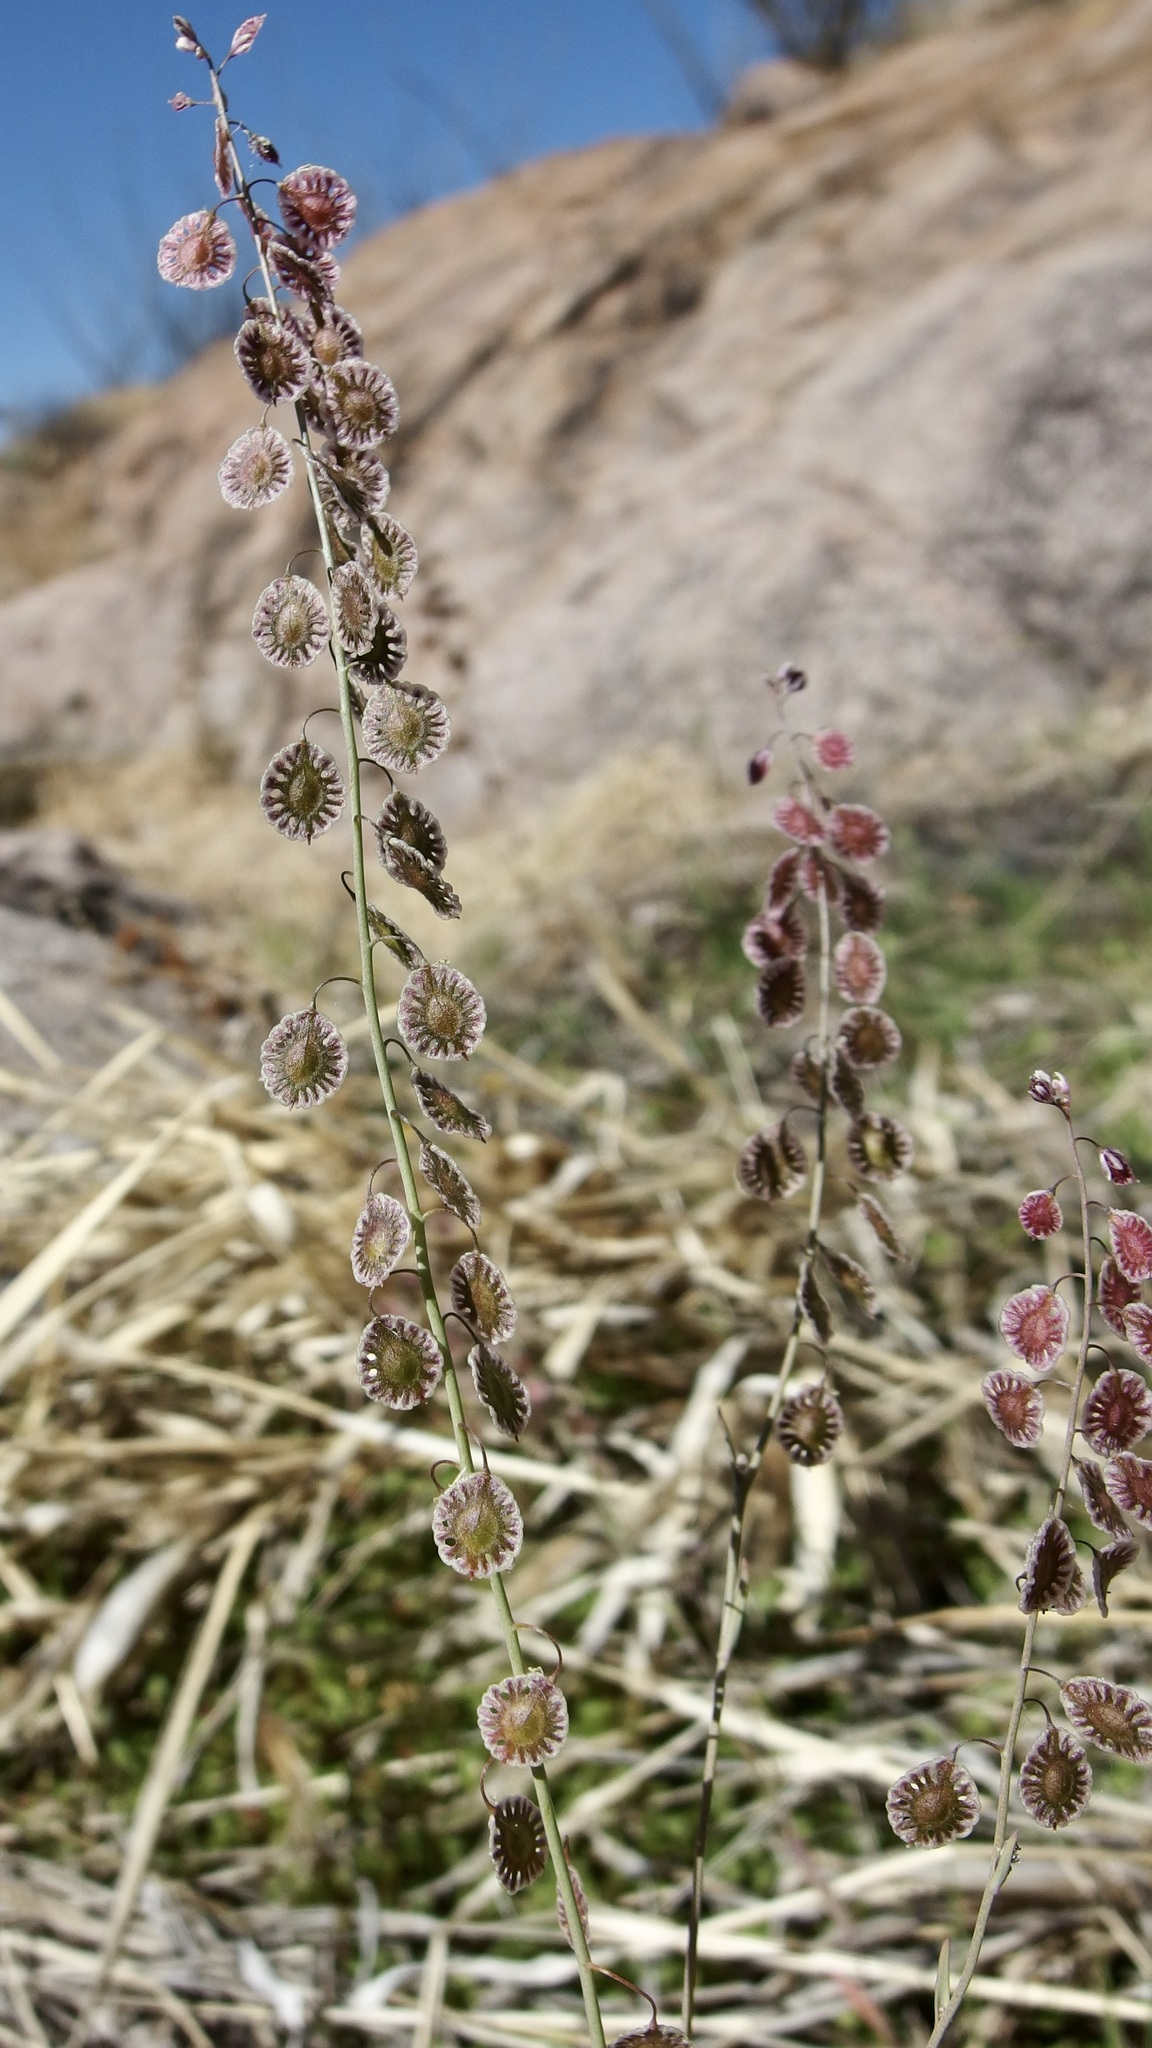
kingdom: Plantae
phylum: Tracheophyta
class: Magnoliopsida
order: Brassicales
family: Brassicaceae
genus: Thysanocarpus
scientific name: Thysanocarpus curvipes
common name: Sand fringepod
